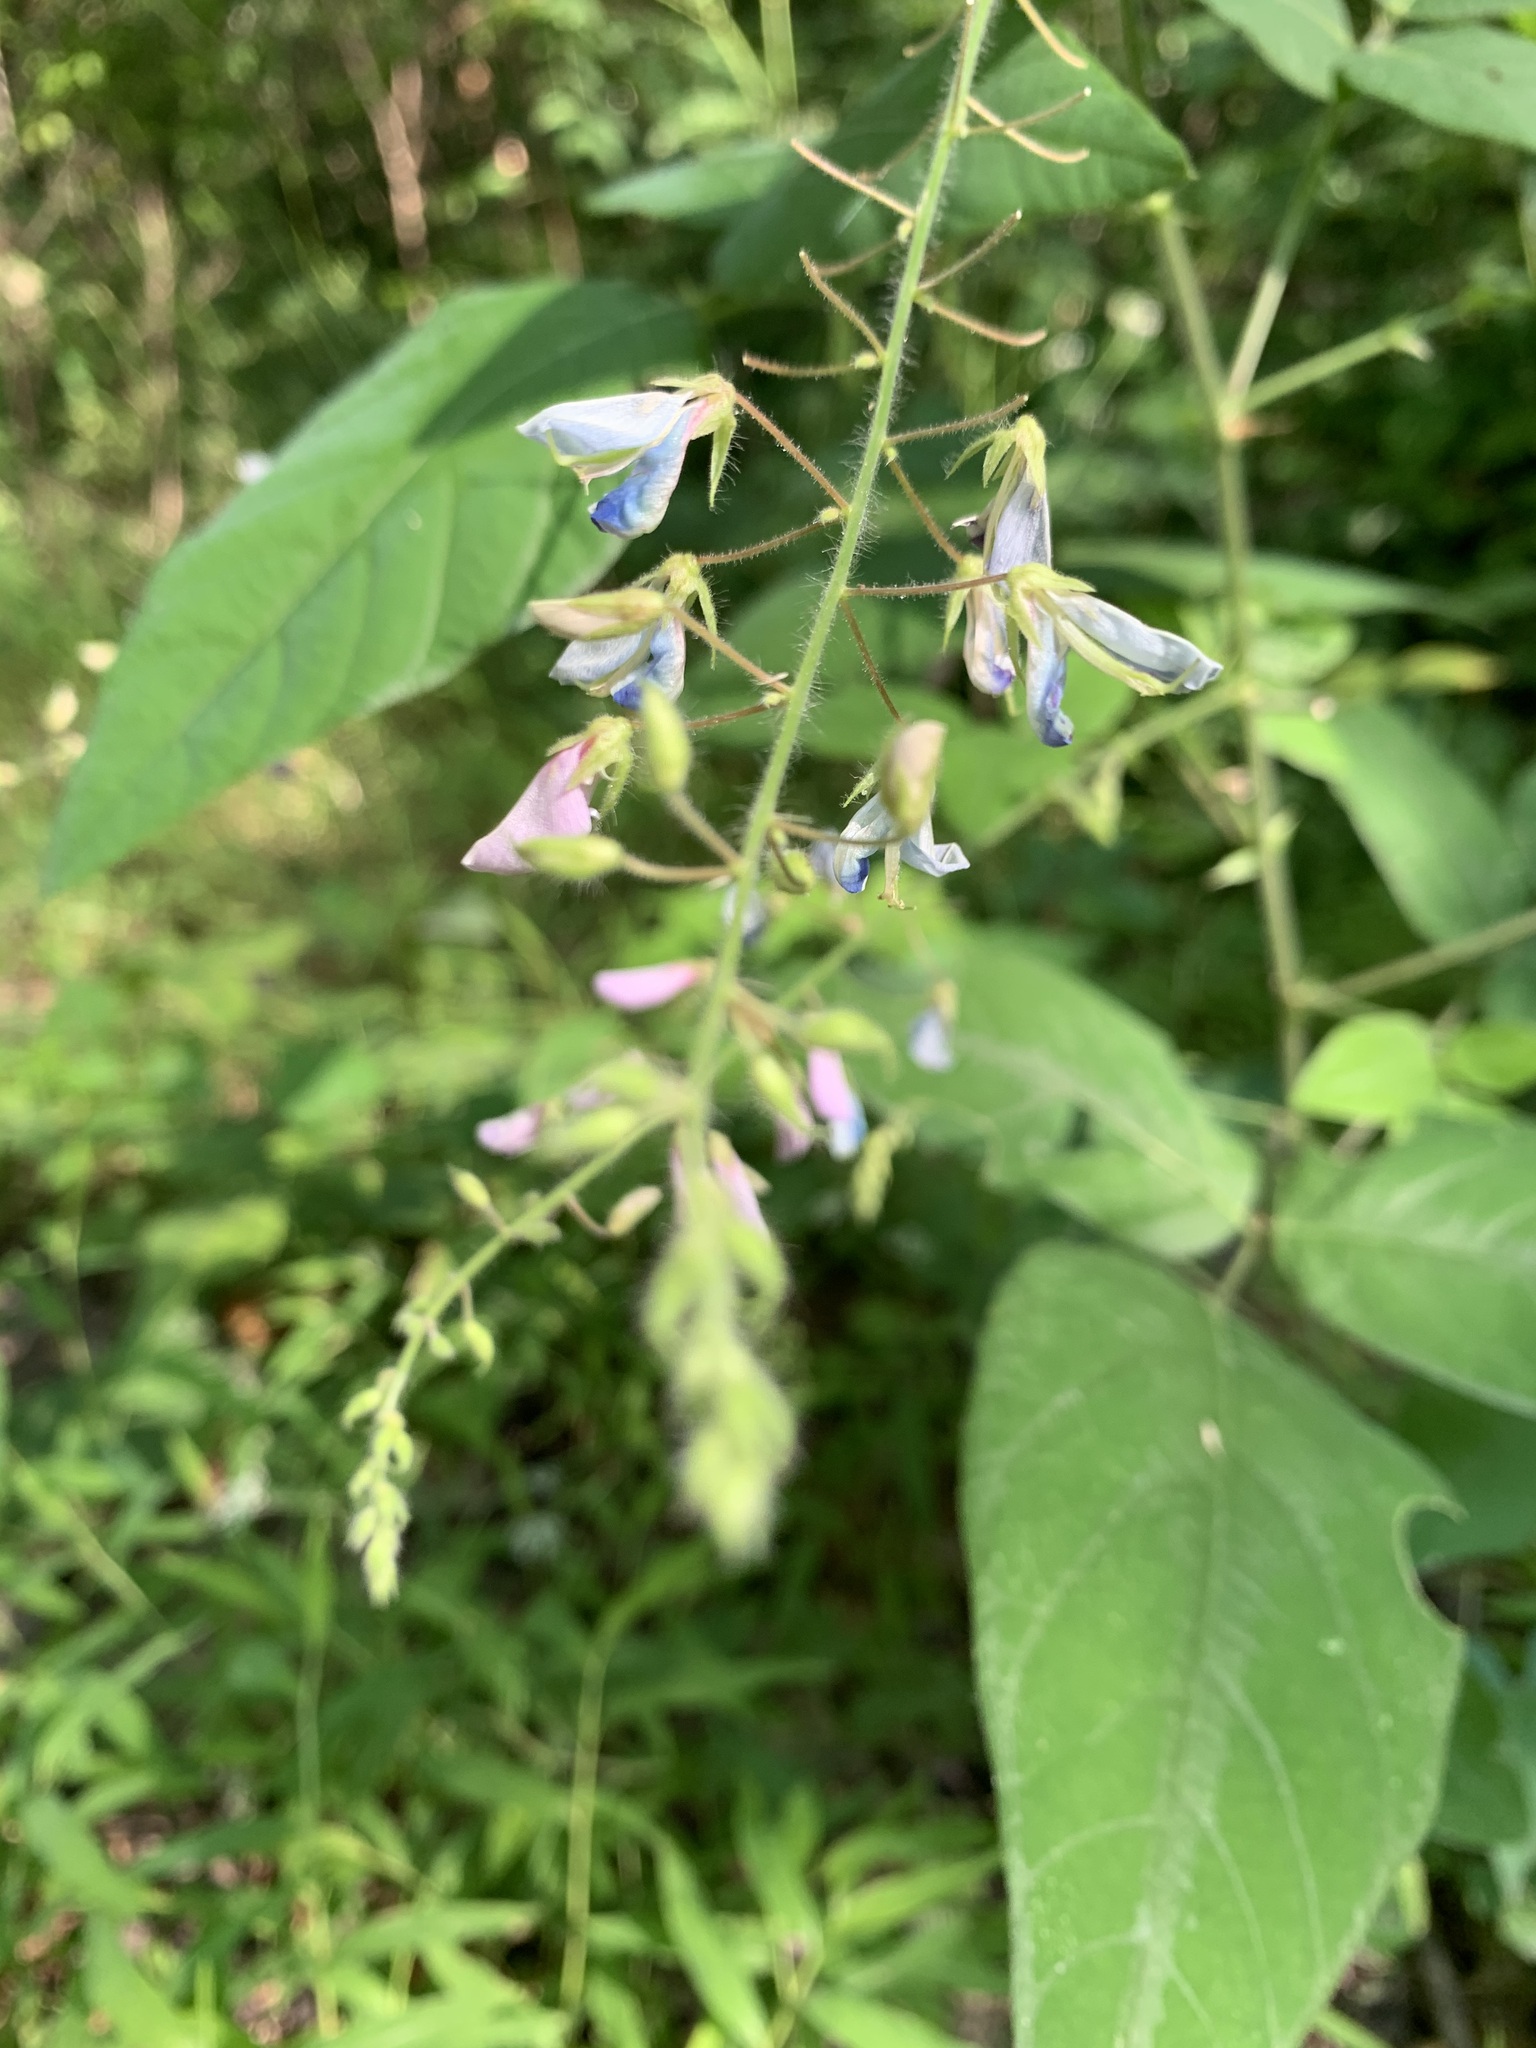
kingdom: Plantae
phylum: Tracheophyta
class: Magnoliopsida
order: Fabales
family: Fabaceae
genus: Desmodium
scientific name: Desmodium canescens
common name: Hoary tick-clover
